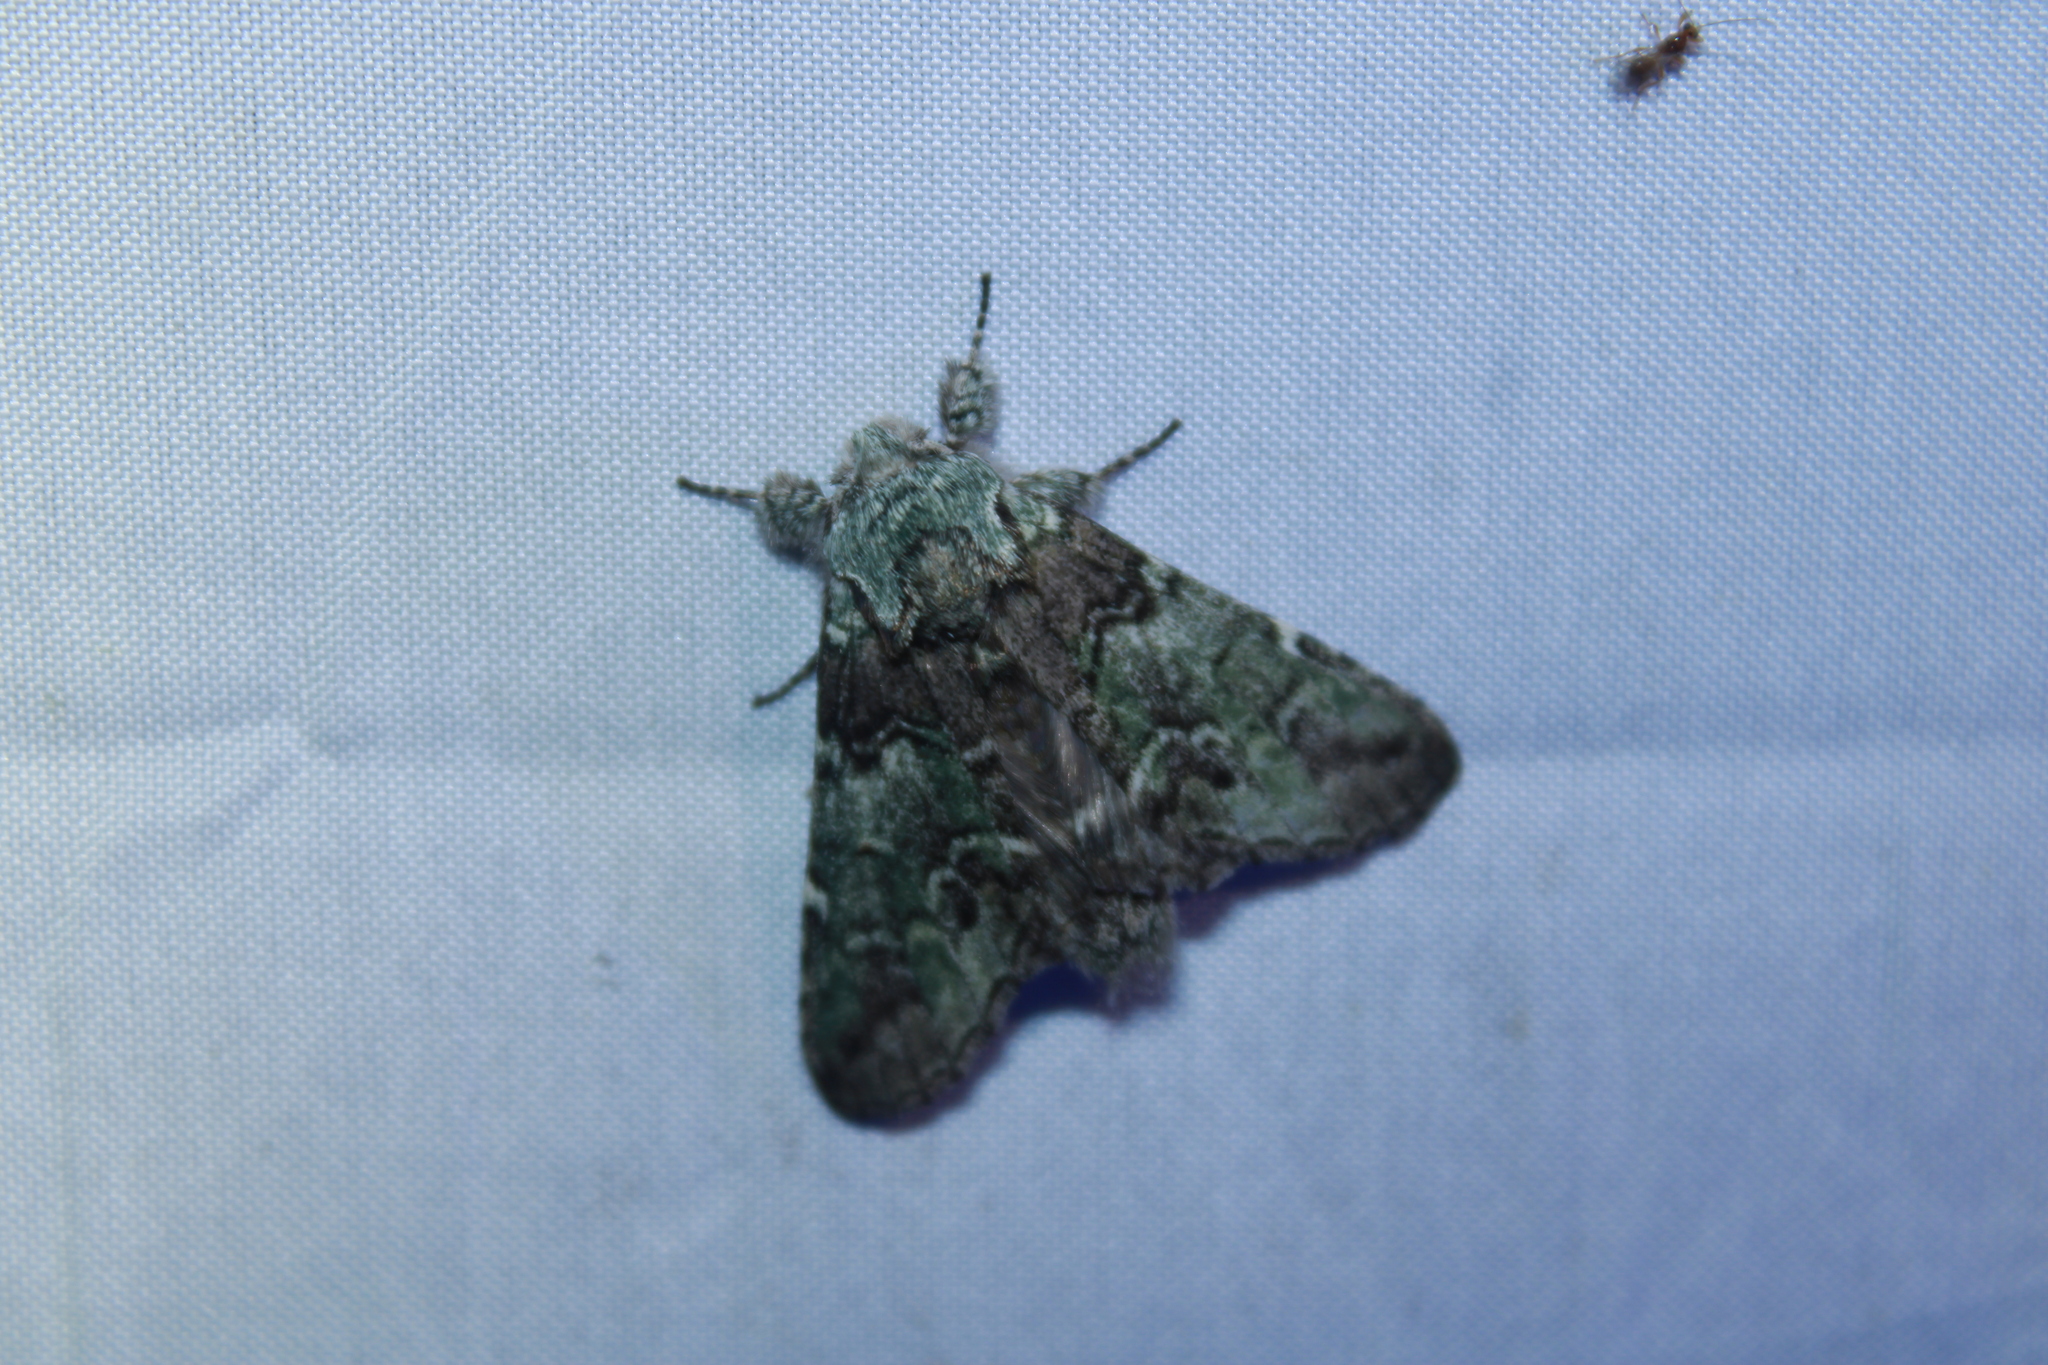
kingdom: Animalia
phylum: Arthropoda
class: Insecta
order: Lepidoptera
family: Notodontidae
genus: Macrurocampa
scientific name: Macrurocampa marthesia
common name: Mottled prominent
